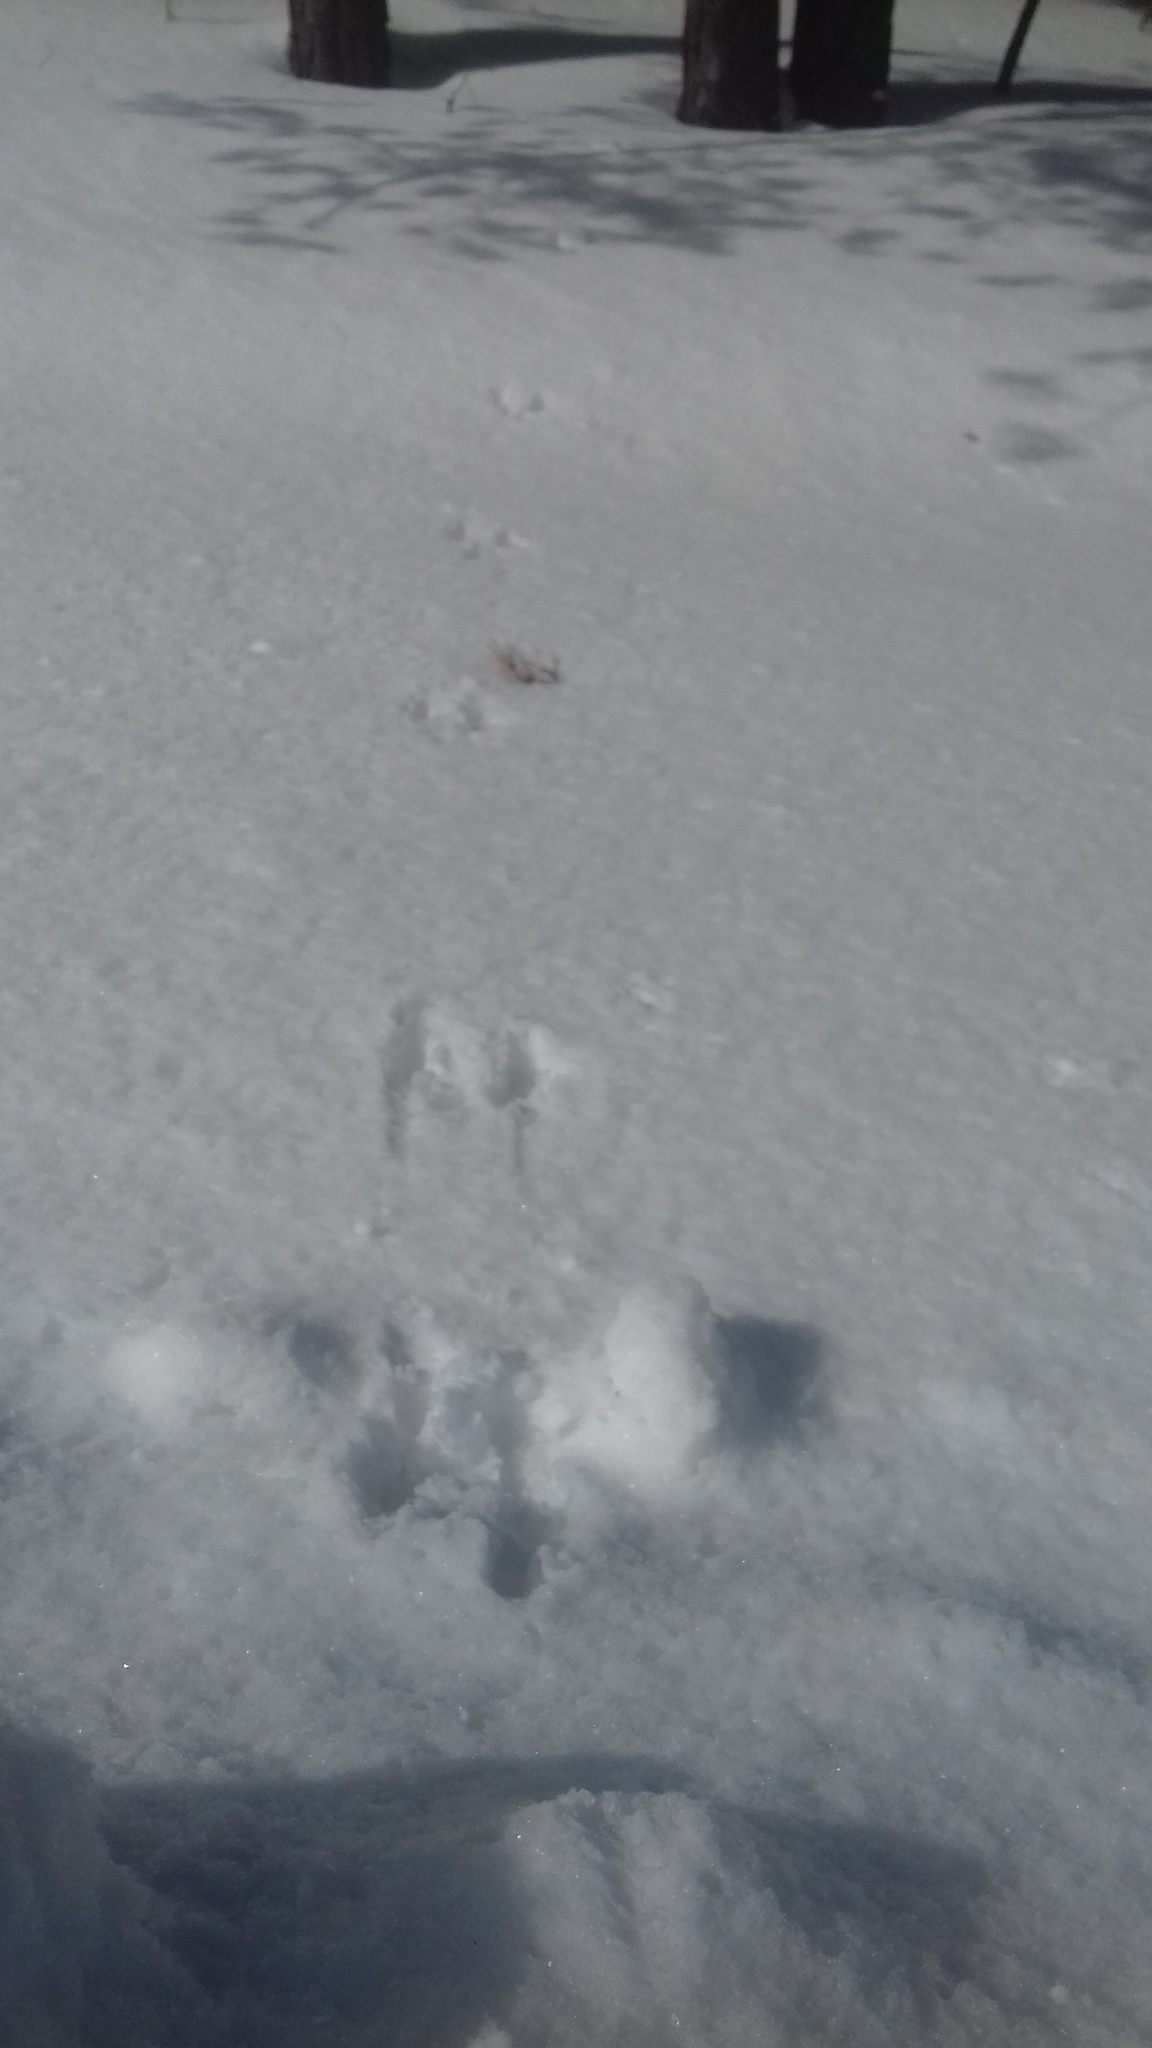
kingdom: Animalia
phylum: Chordata
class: Mammalia
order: Rodentia
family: Sciuridae
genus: Sciurus
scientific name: Sciurus vulgaris
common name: Eurasian red squirrel
